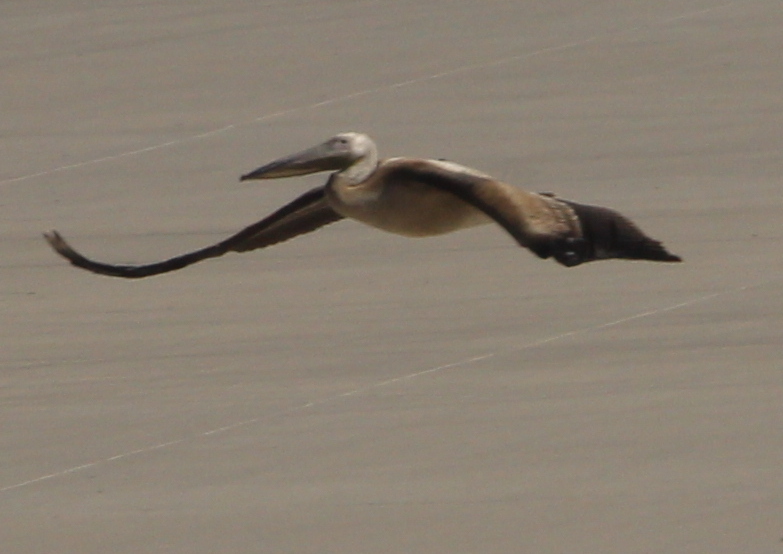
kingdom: Animalia
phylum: Chordata
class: Aves
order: Pelecaniformes
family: Pelecanidae
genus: Pelecanus
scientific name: Pelecanus onocrotalus
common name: Great white pelican
